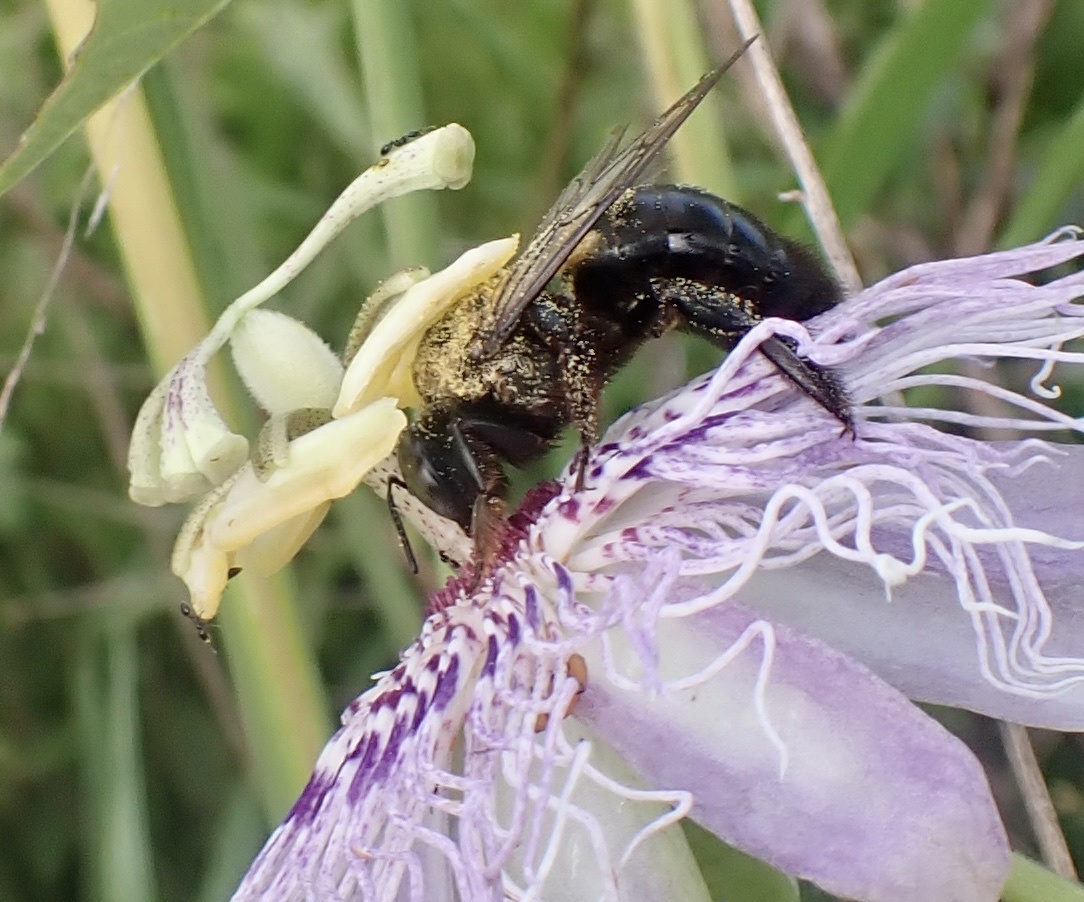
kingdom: Animalia
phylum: Arthropoda
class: Insecta
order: Hymenoptera
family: Apidae
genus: Xylocopa
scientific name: Xylocopa virginica
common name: Carpenter bee
